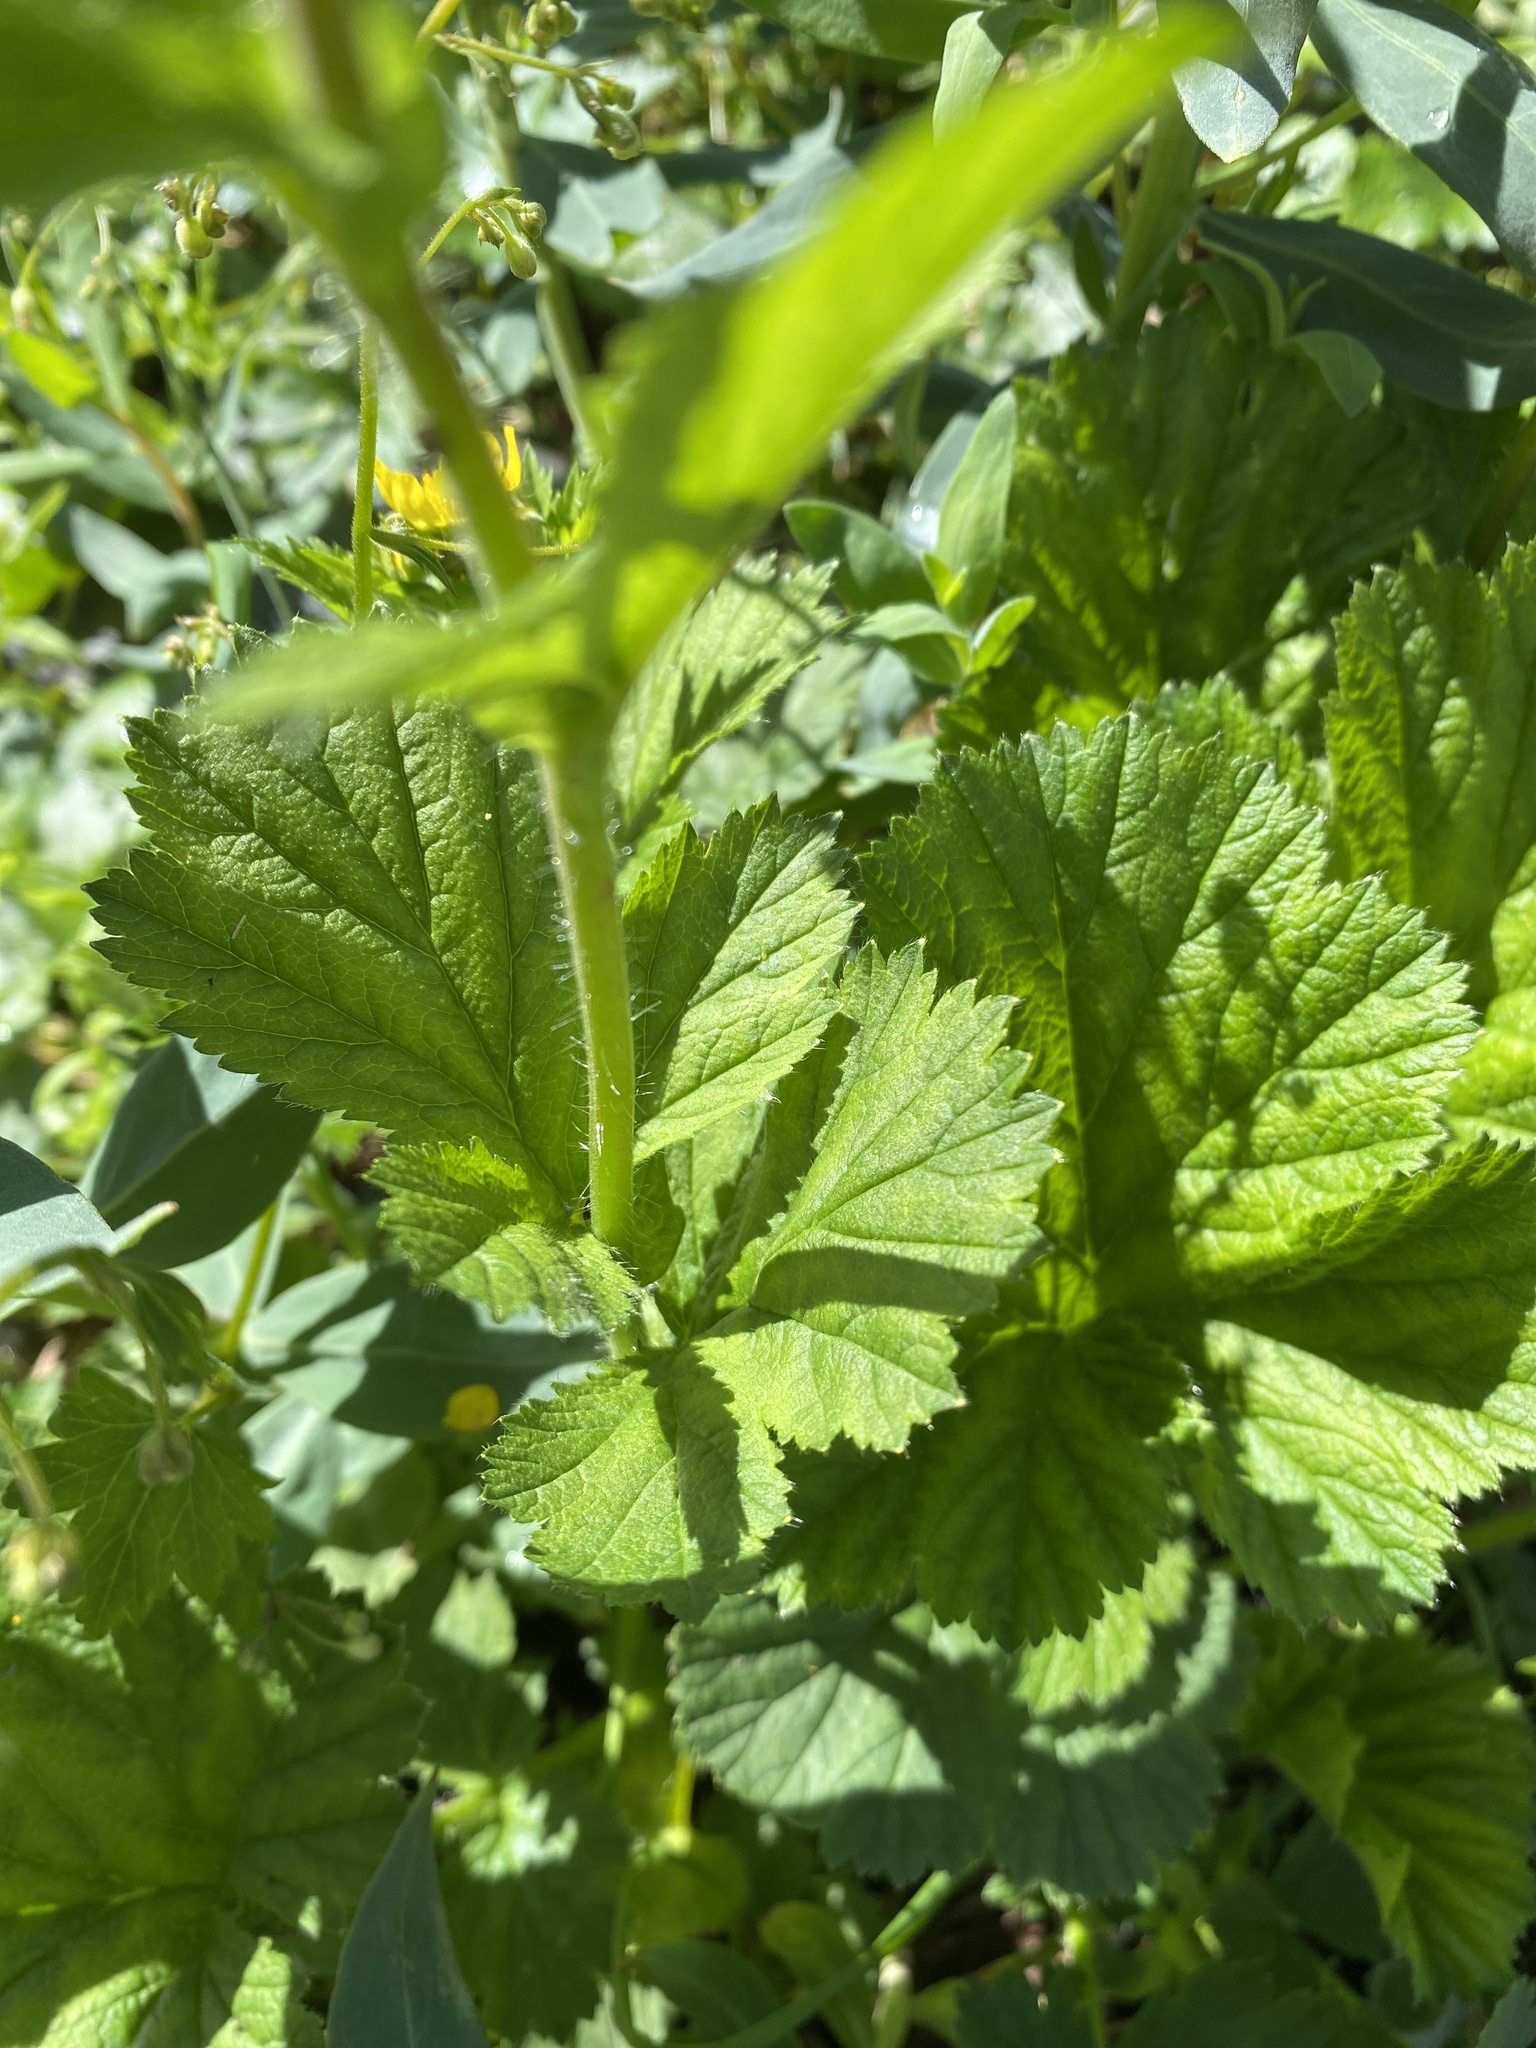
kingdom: Plantae
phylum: Tracheophyta
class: Magnoliopsida
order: Rosales
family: Rosaceae
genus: Geum
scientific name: Geum macrophyllum
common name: Large-leaved avens
